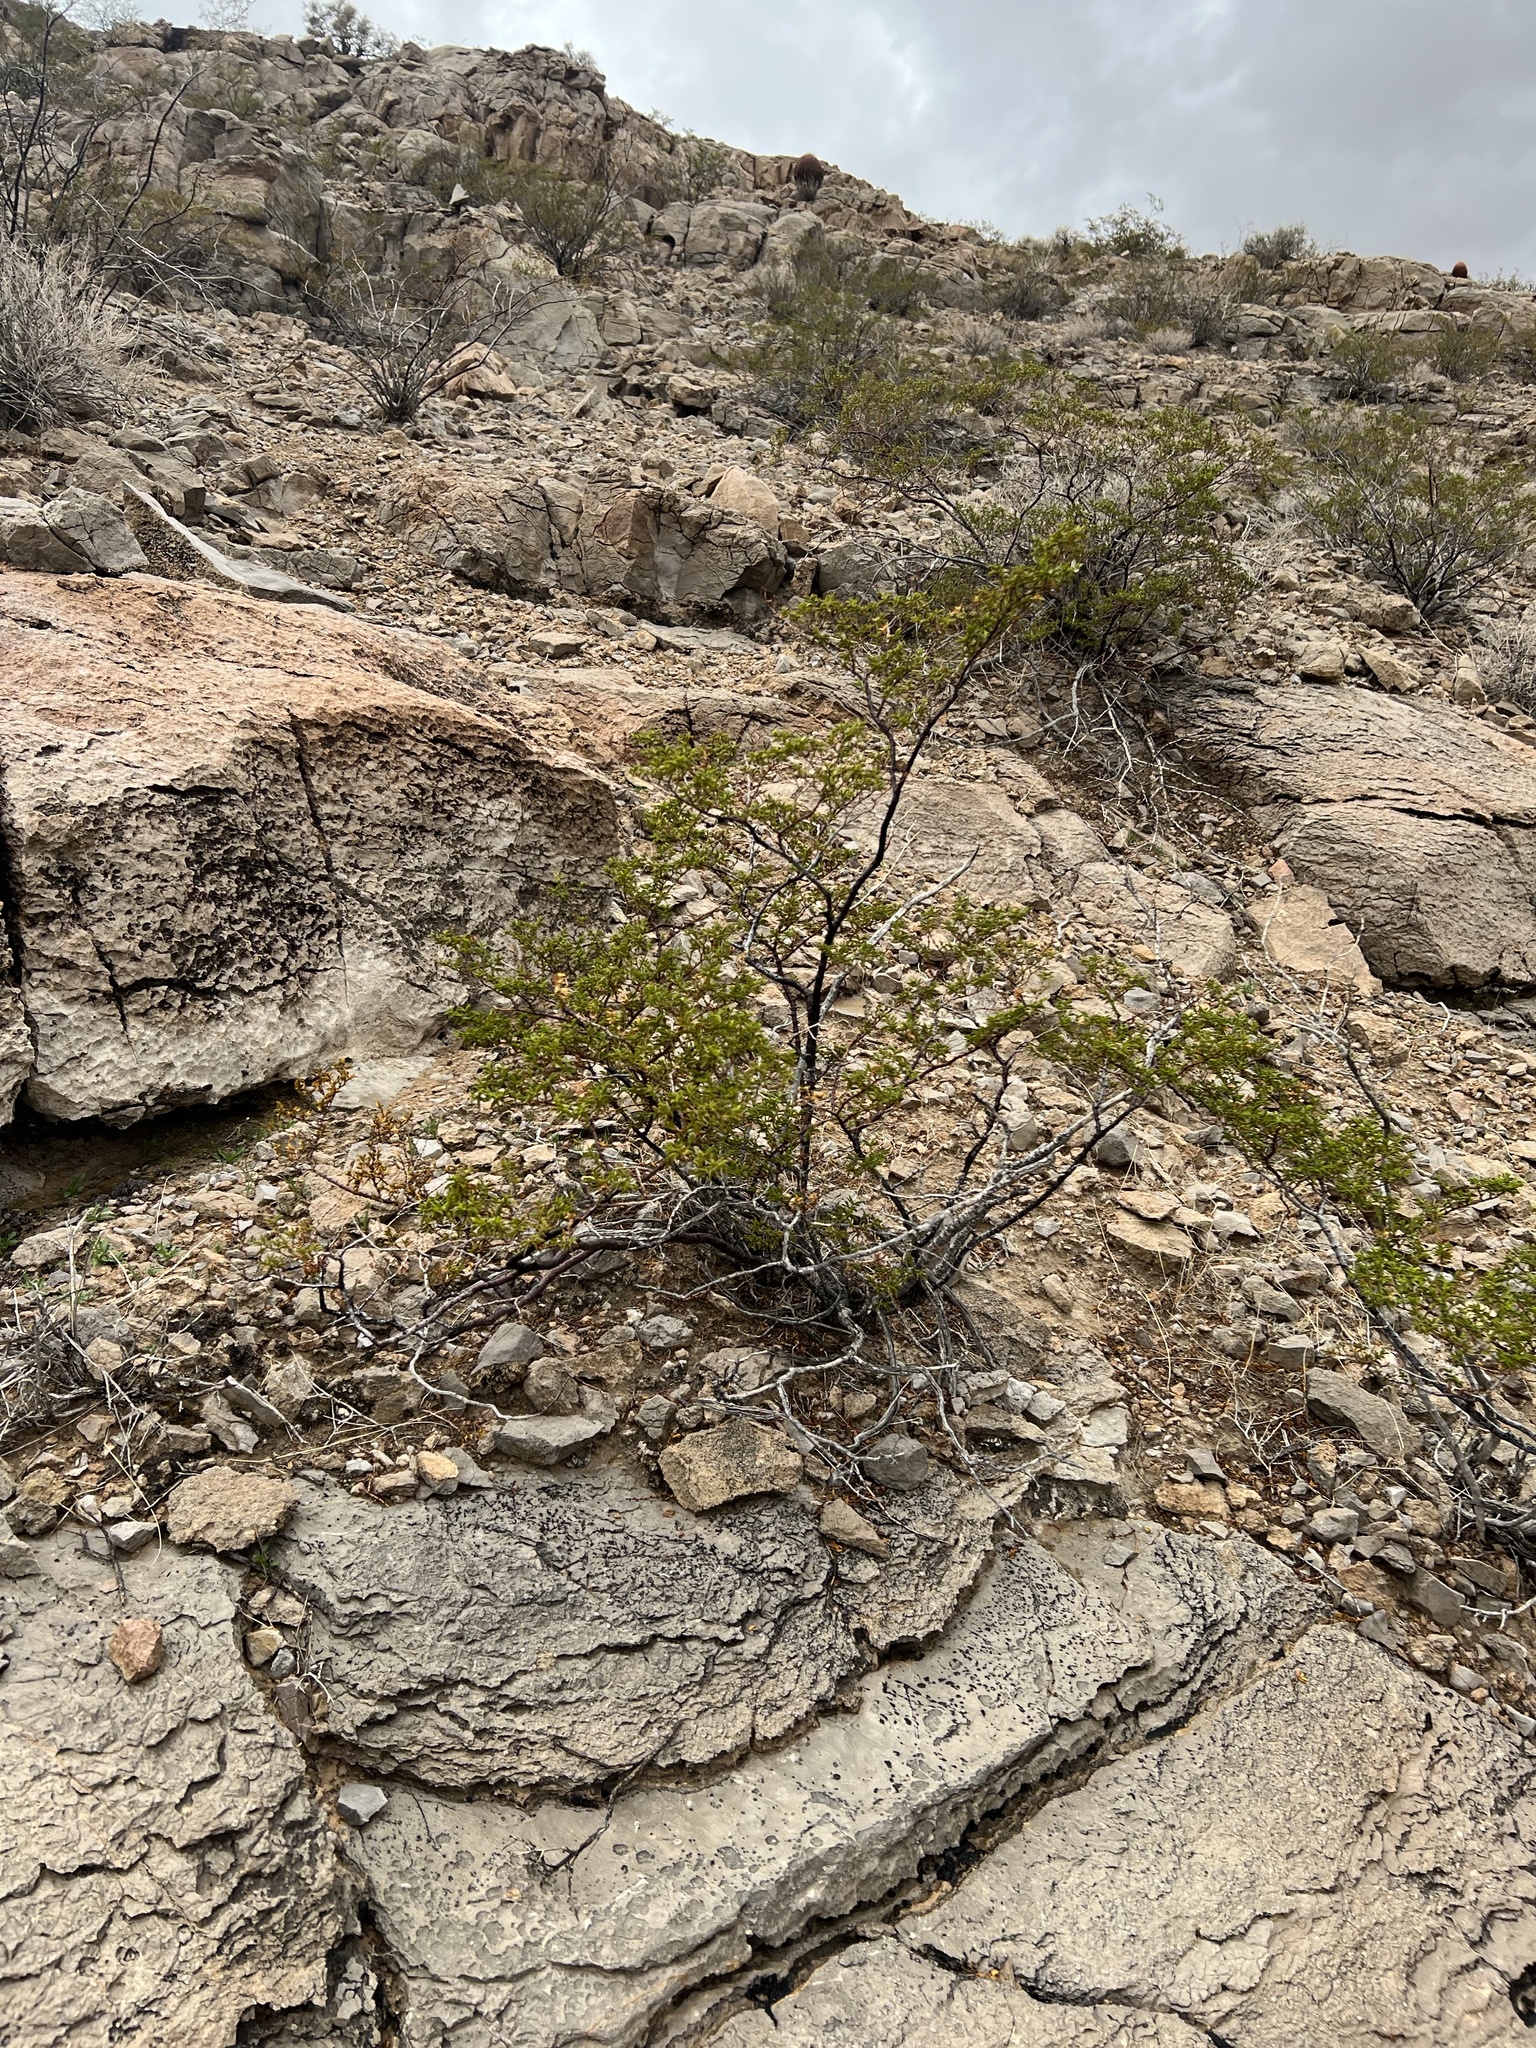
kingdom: Plantae
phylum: Tracheophyta
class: Magnoliopsida
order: Zygophyllales
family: Zygophyllaceae
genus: Larrea
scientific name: Larrea tridentata
